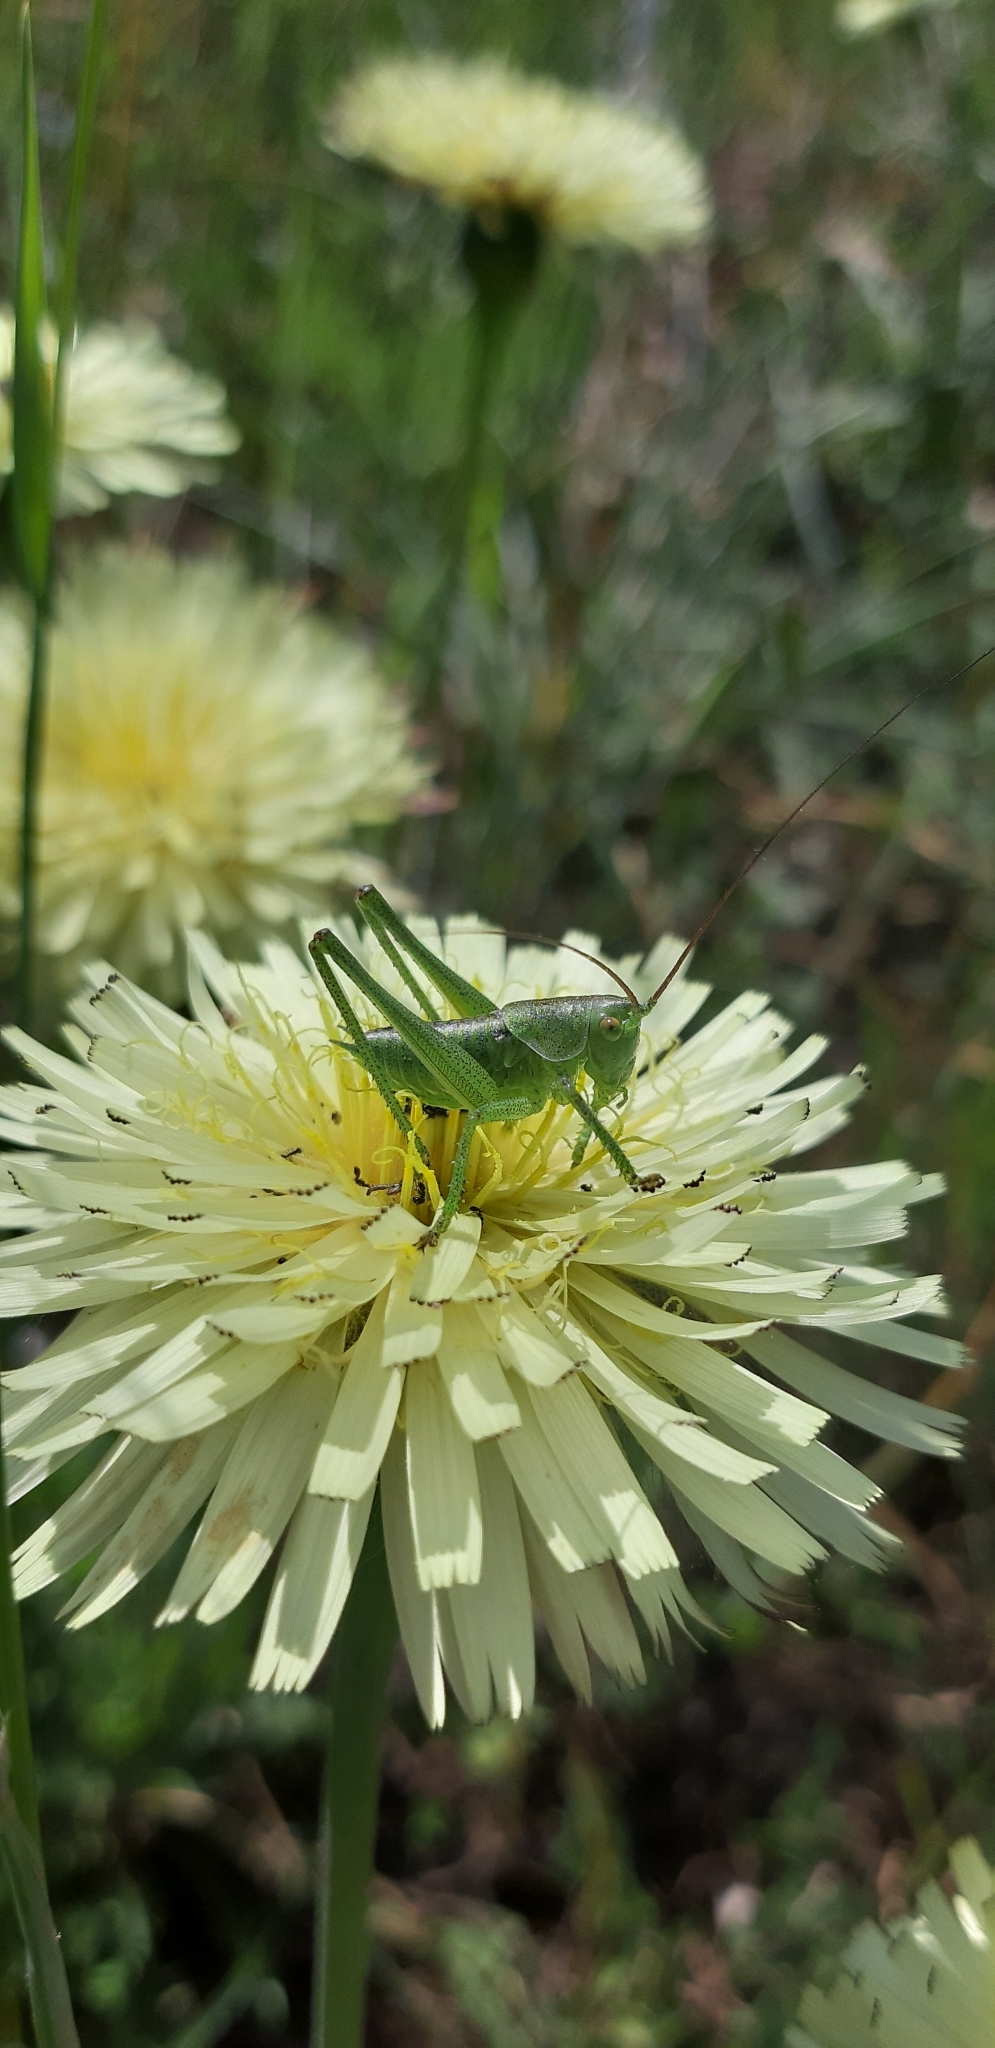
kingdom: Animalia
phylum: Arthropoda
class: Insecta
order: Orthoptera
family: Tettigoniidae
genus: Tettigonia
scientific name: Tettigonia viridissima
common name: Great green bush-cricket
